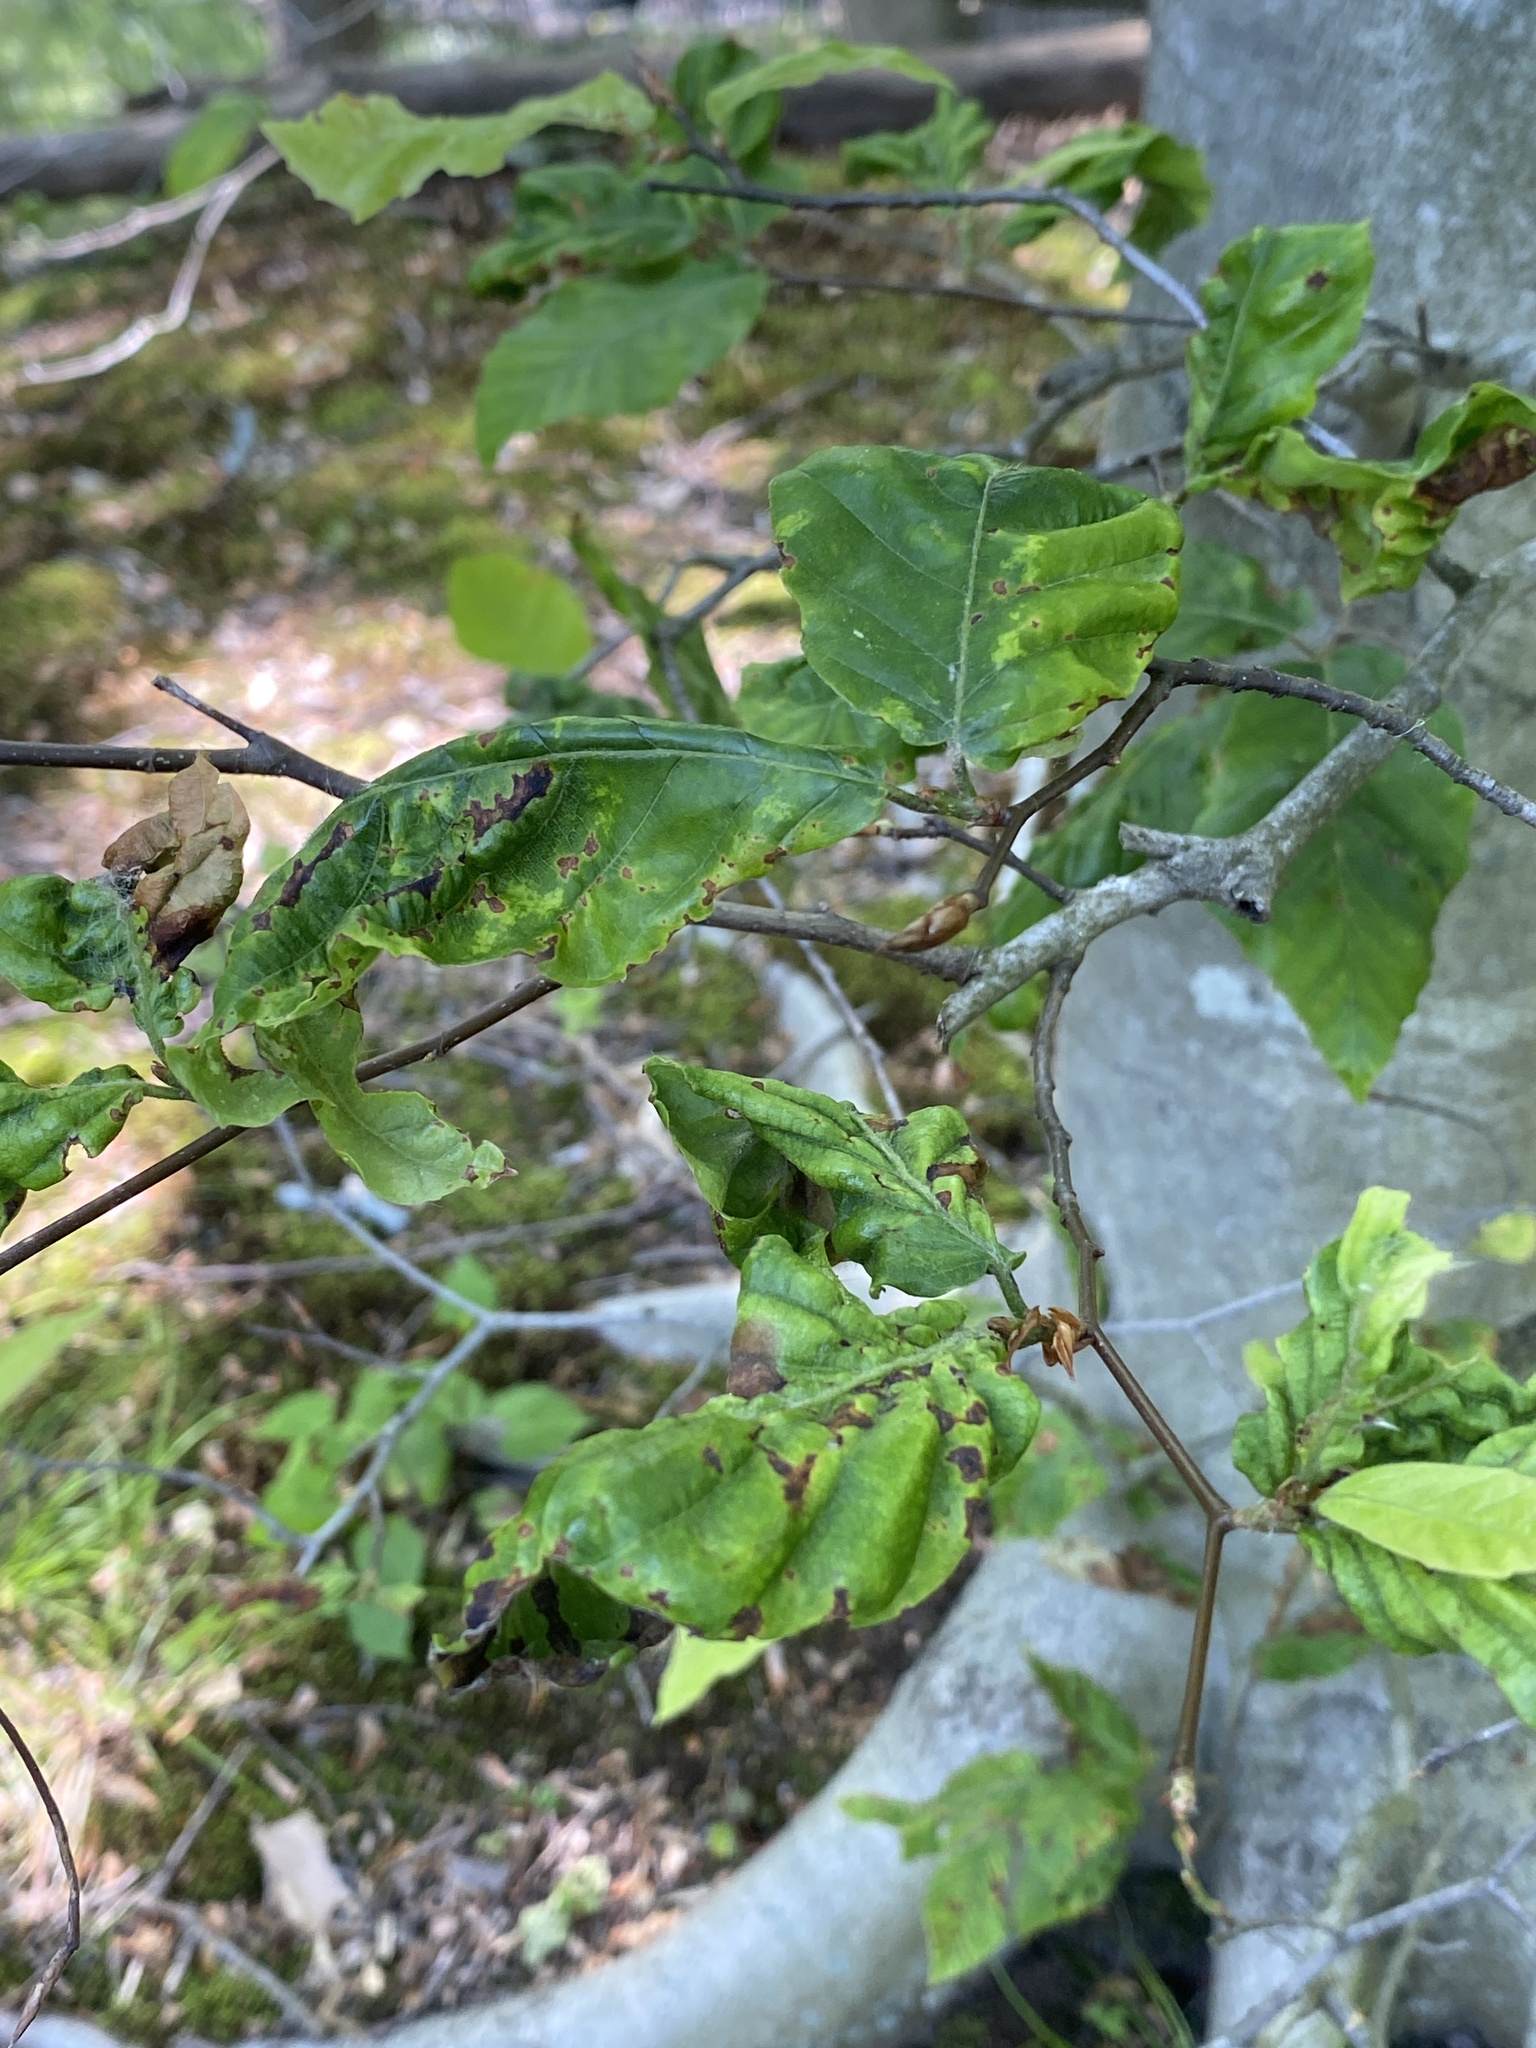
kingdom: Animalia
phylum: Nematoda
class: Chromadorea
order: Rhabditida
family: Anguinidae
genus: Litylenchus
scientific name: Litylenchus crenatae
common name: Beech leaf disease
